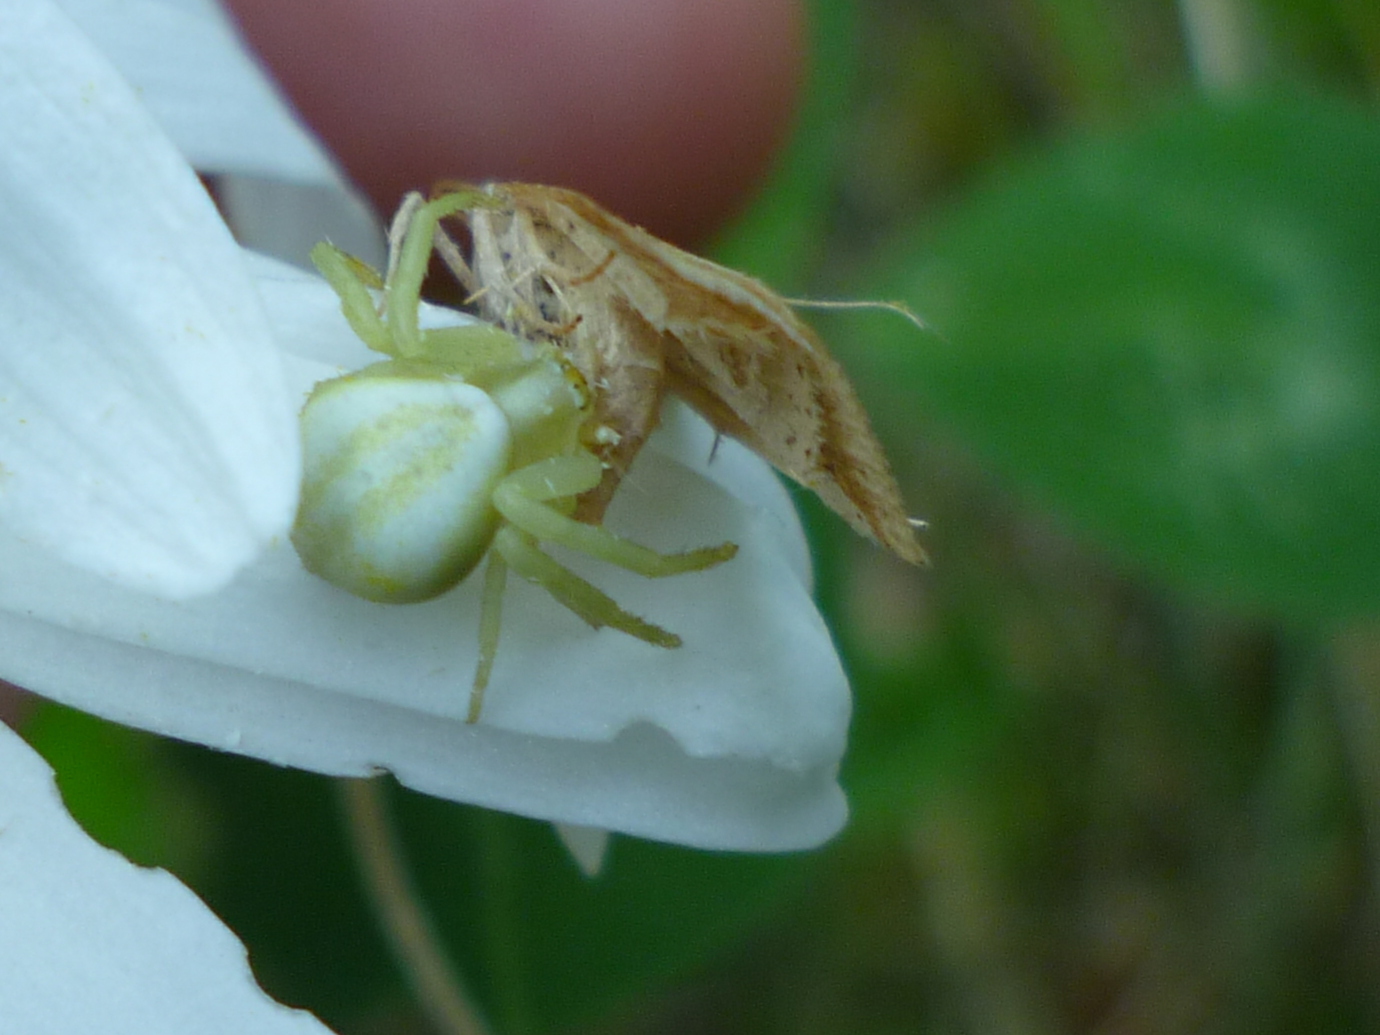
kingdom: Animalia
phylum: Arthropoda
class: Arachnida
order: Araneae
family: Thomisidae
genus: Misumena
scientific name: Misumena vatia
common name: Goldenrod crab spider
